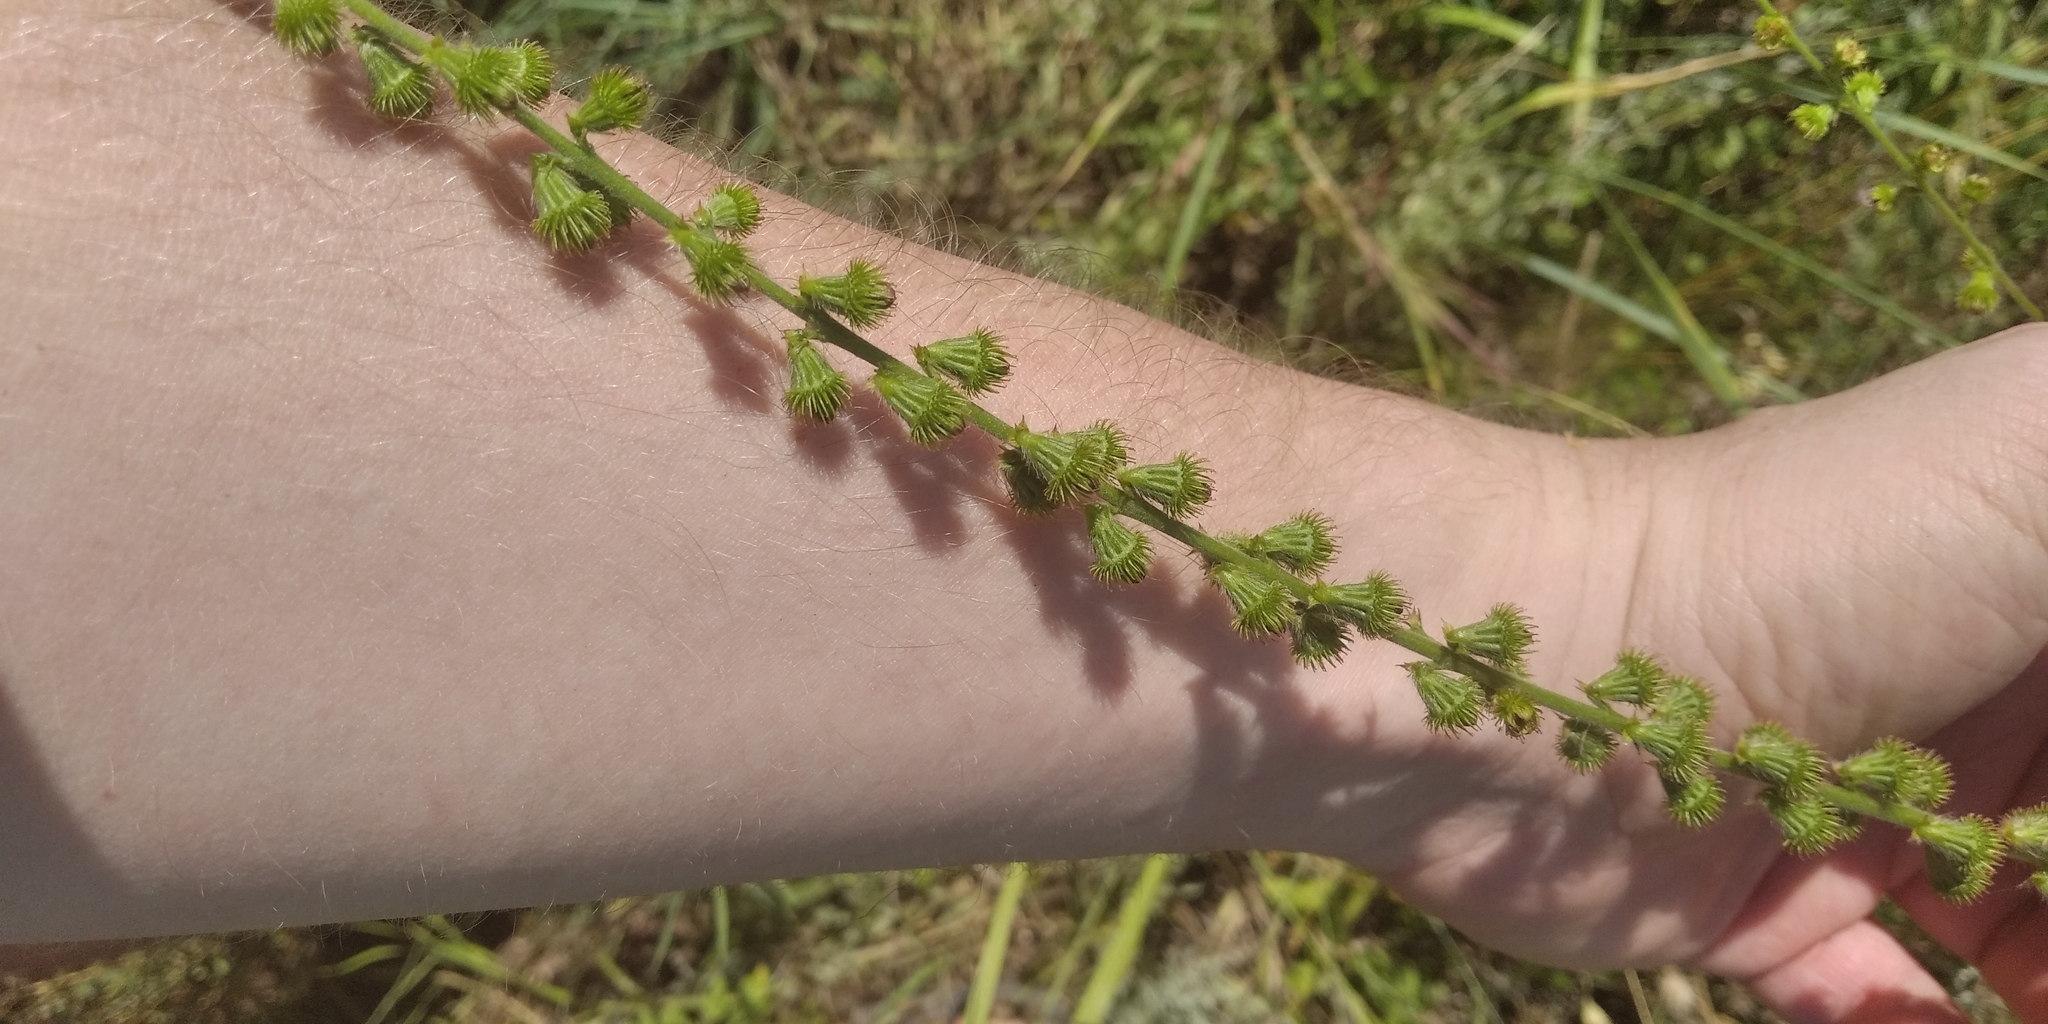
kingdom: Plantae
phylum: Tracheophyta
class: Magnoliopsida
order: Rosales
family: Rosaceae
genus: Agrimonia
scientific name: Agrimonia eupatoria
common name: Agrimony
